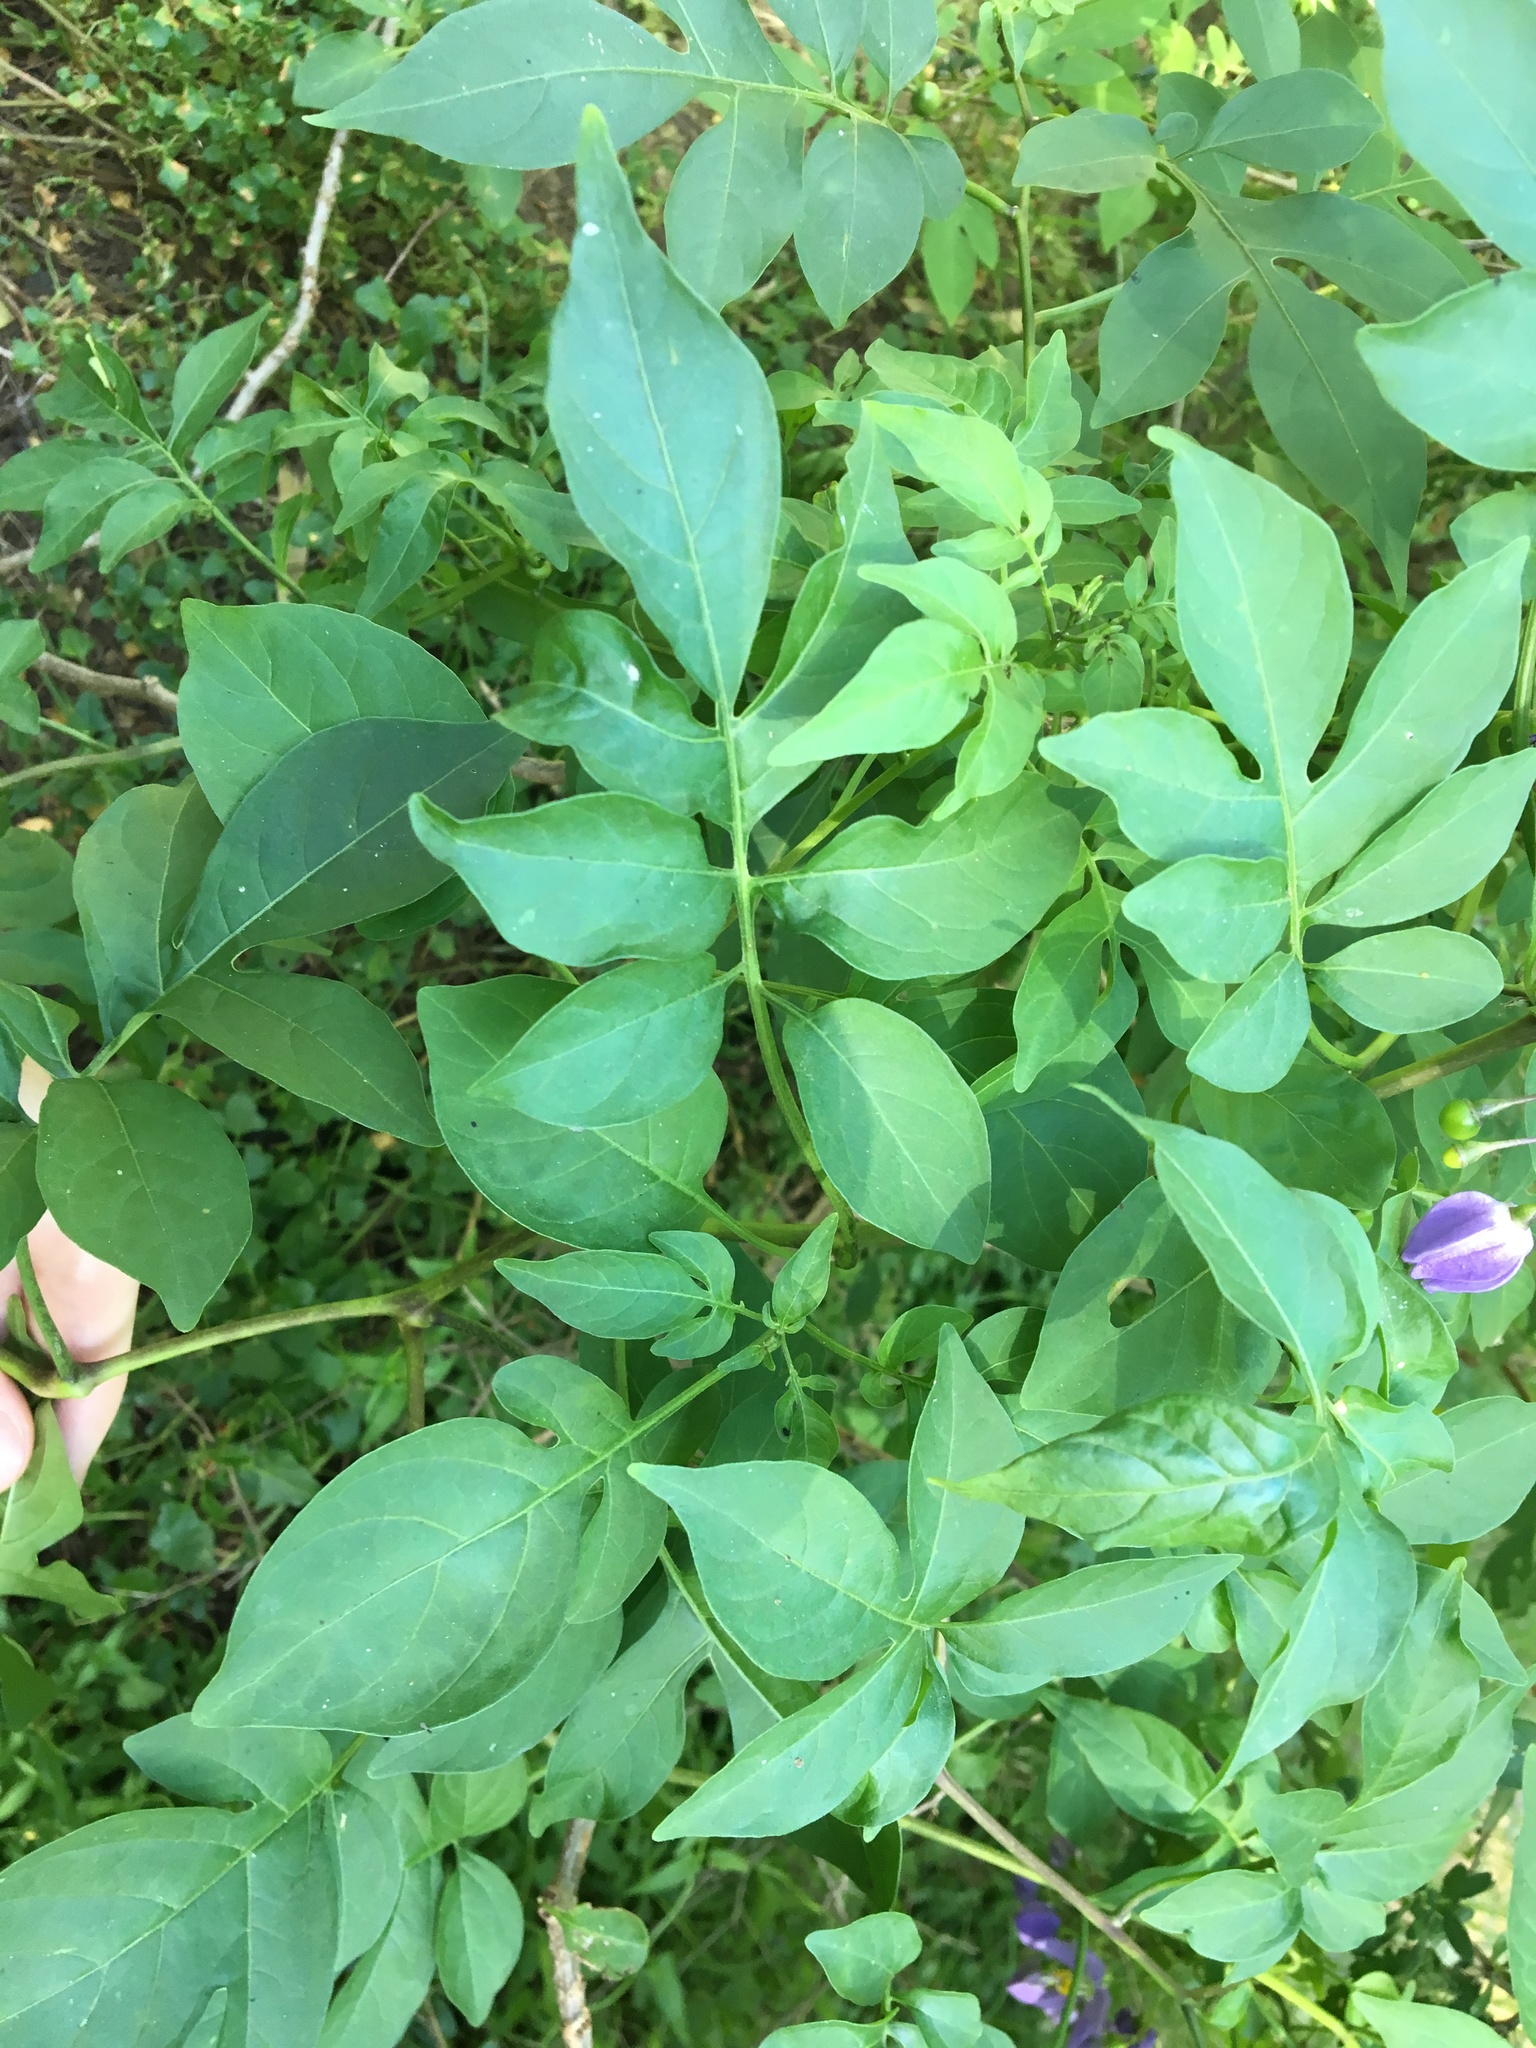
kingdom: Plantae
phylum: Tracheophyta
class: Magnoliopsida
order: Solanales
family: Solanaceae
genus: Solanum
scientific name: Solanum seaforthianum
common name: Brazilian nightshade
